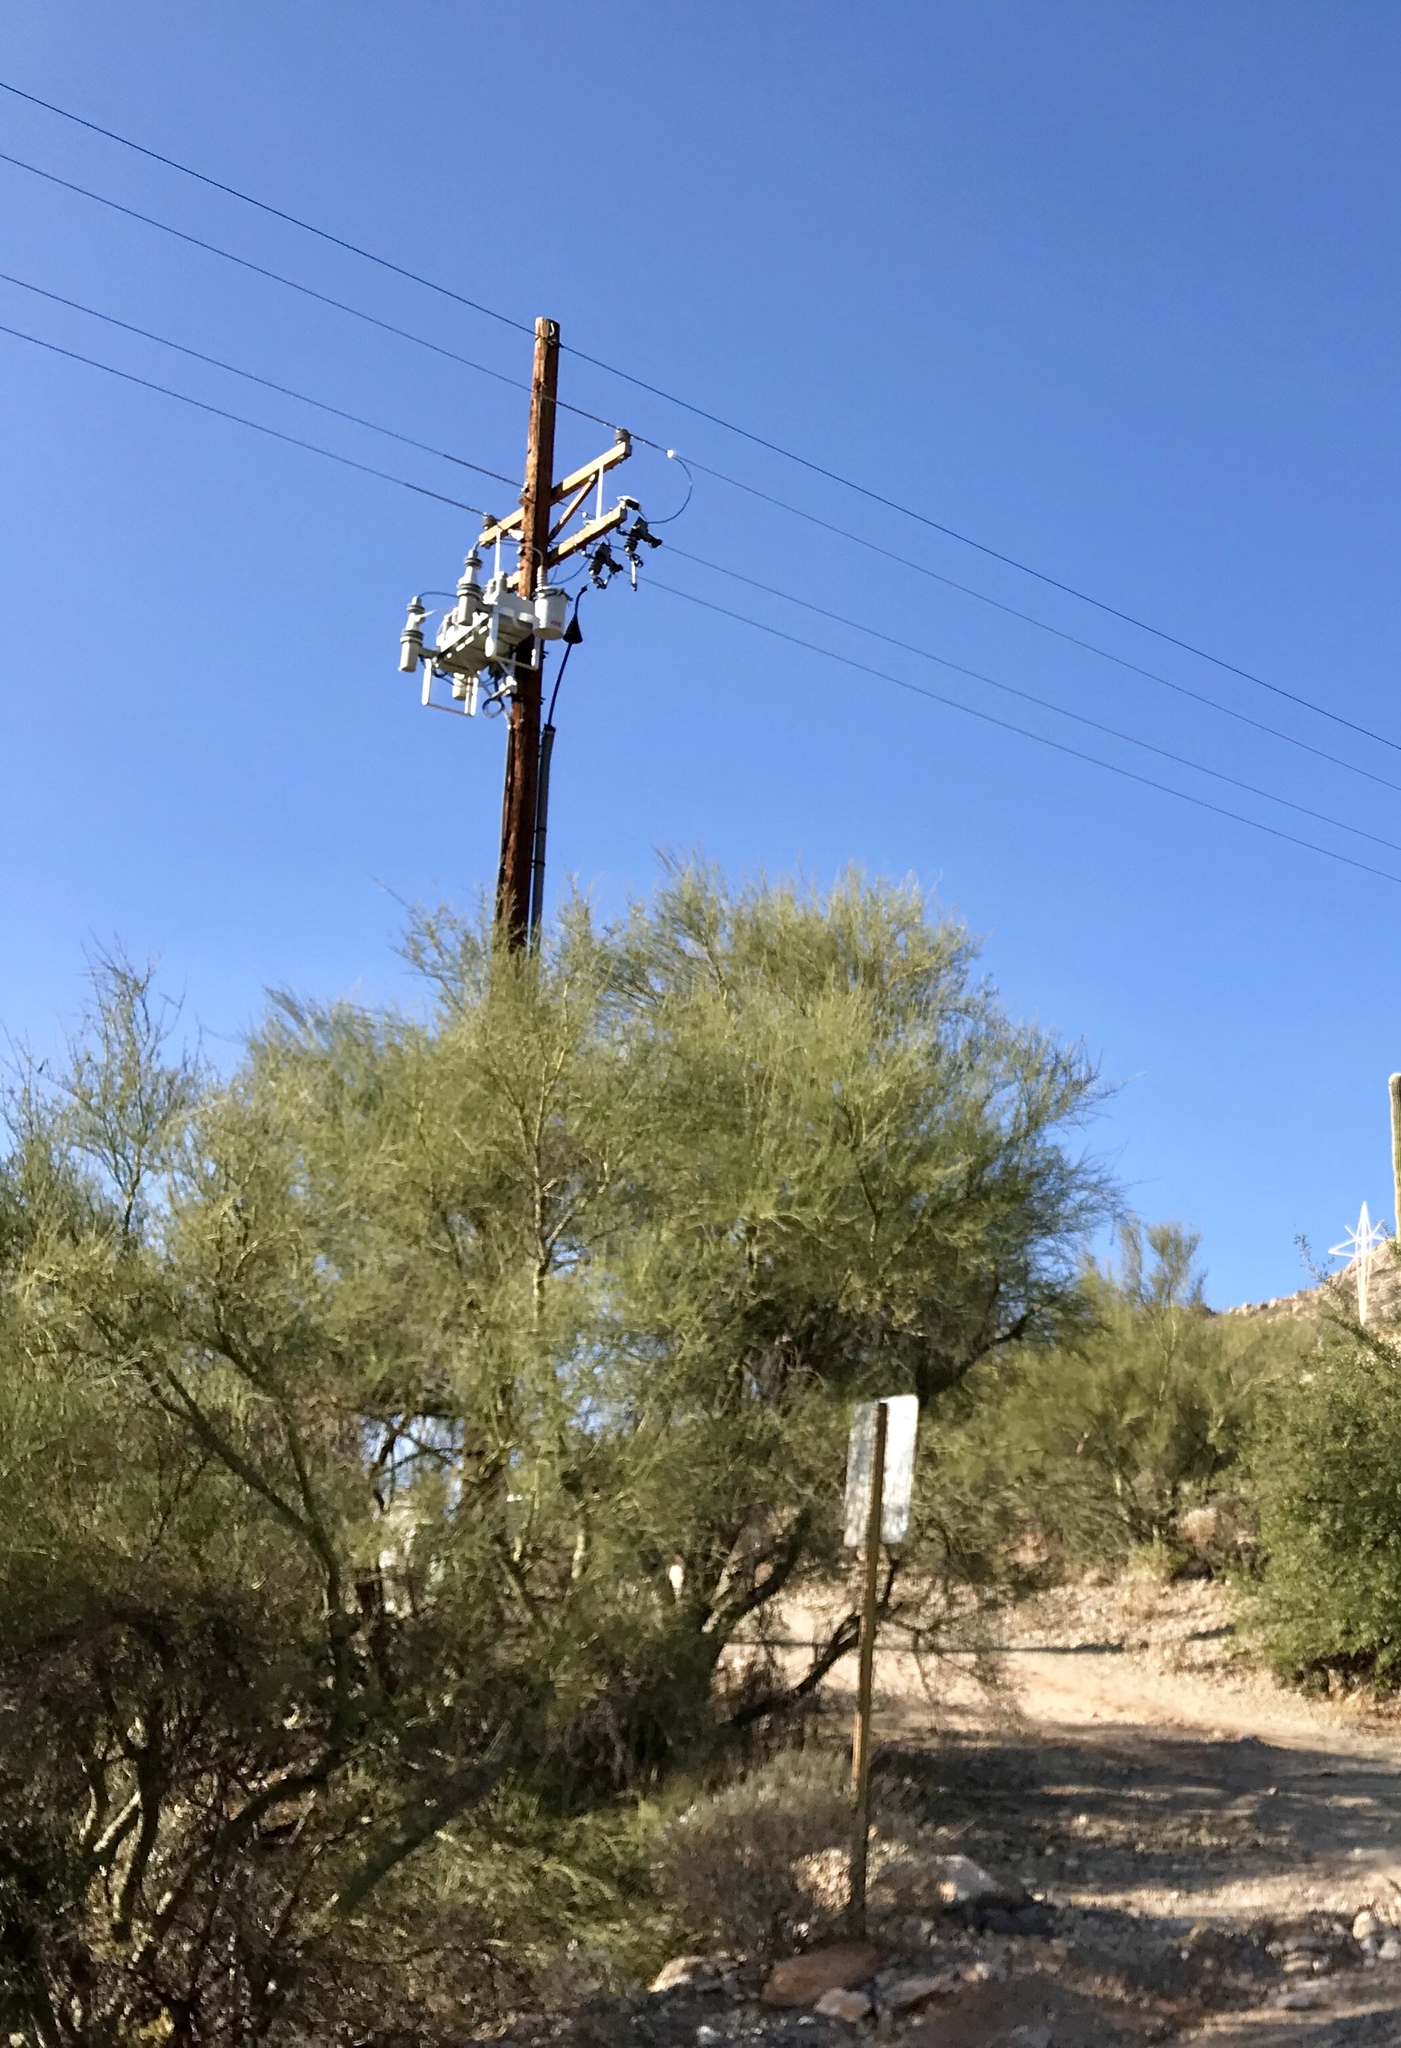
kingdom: Plantae
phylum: Tracheophyta
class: Magnoliopsida
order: Fabales
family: Fabaceae
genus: Parkinsonia
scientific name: Parkinsonia microphylla
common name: Yellow paloverde
